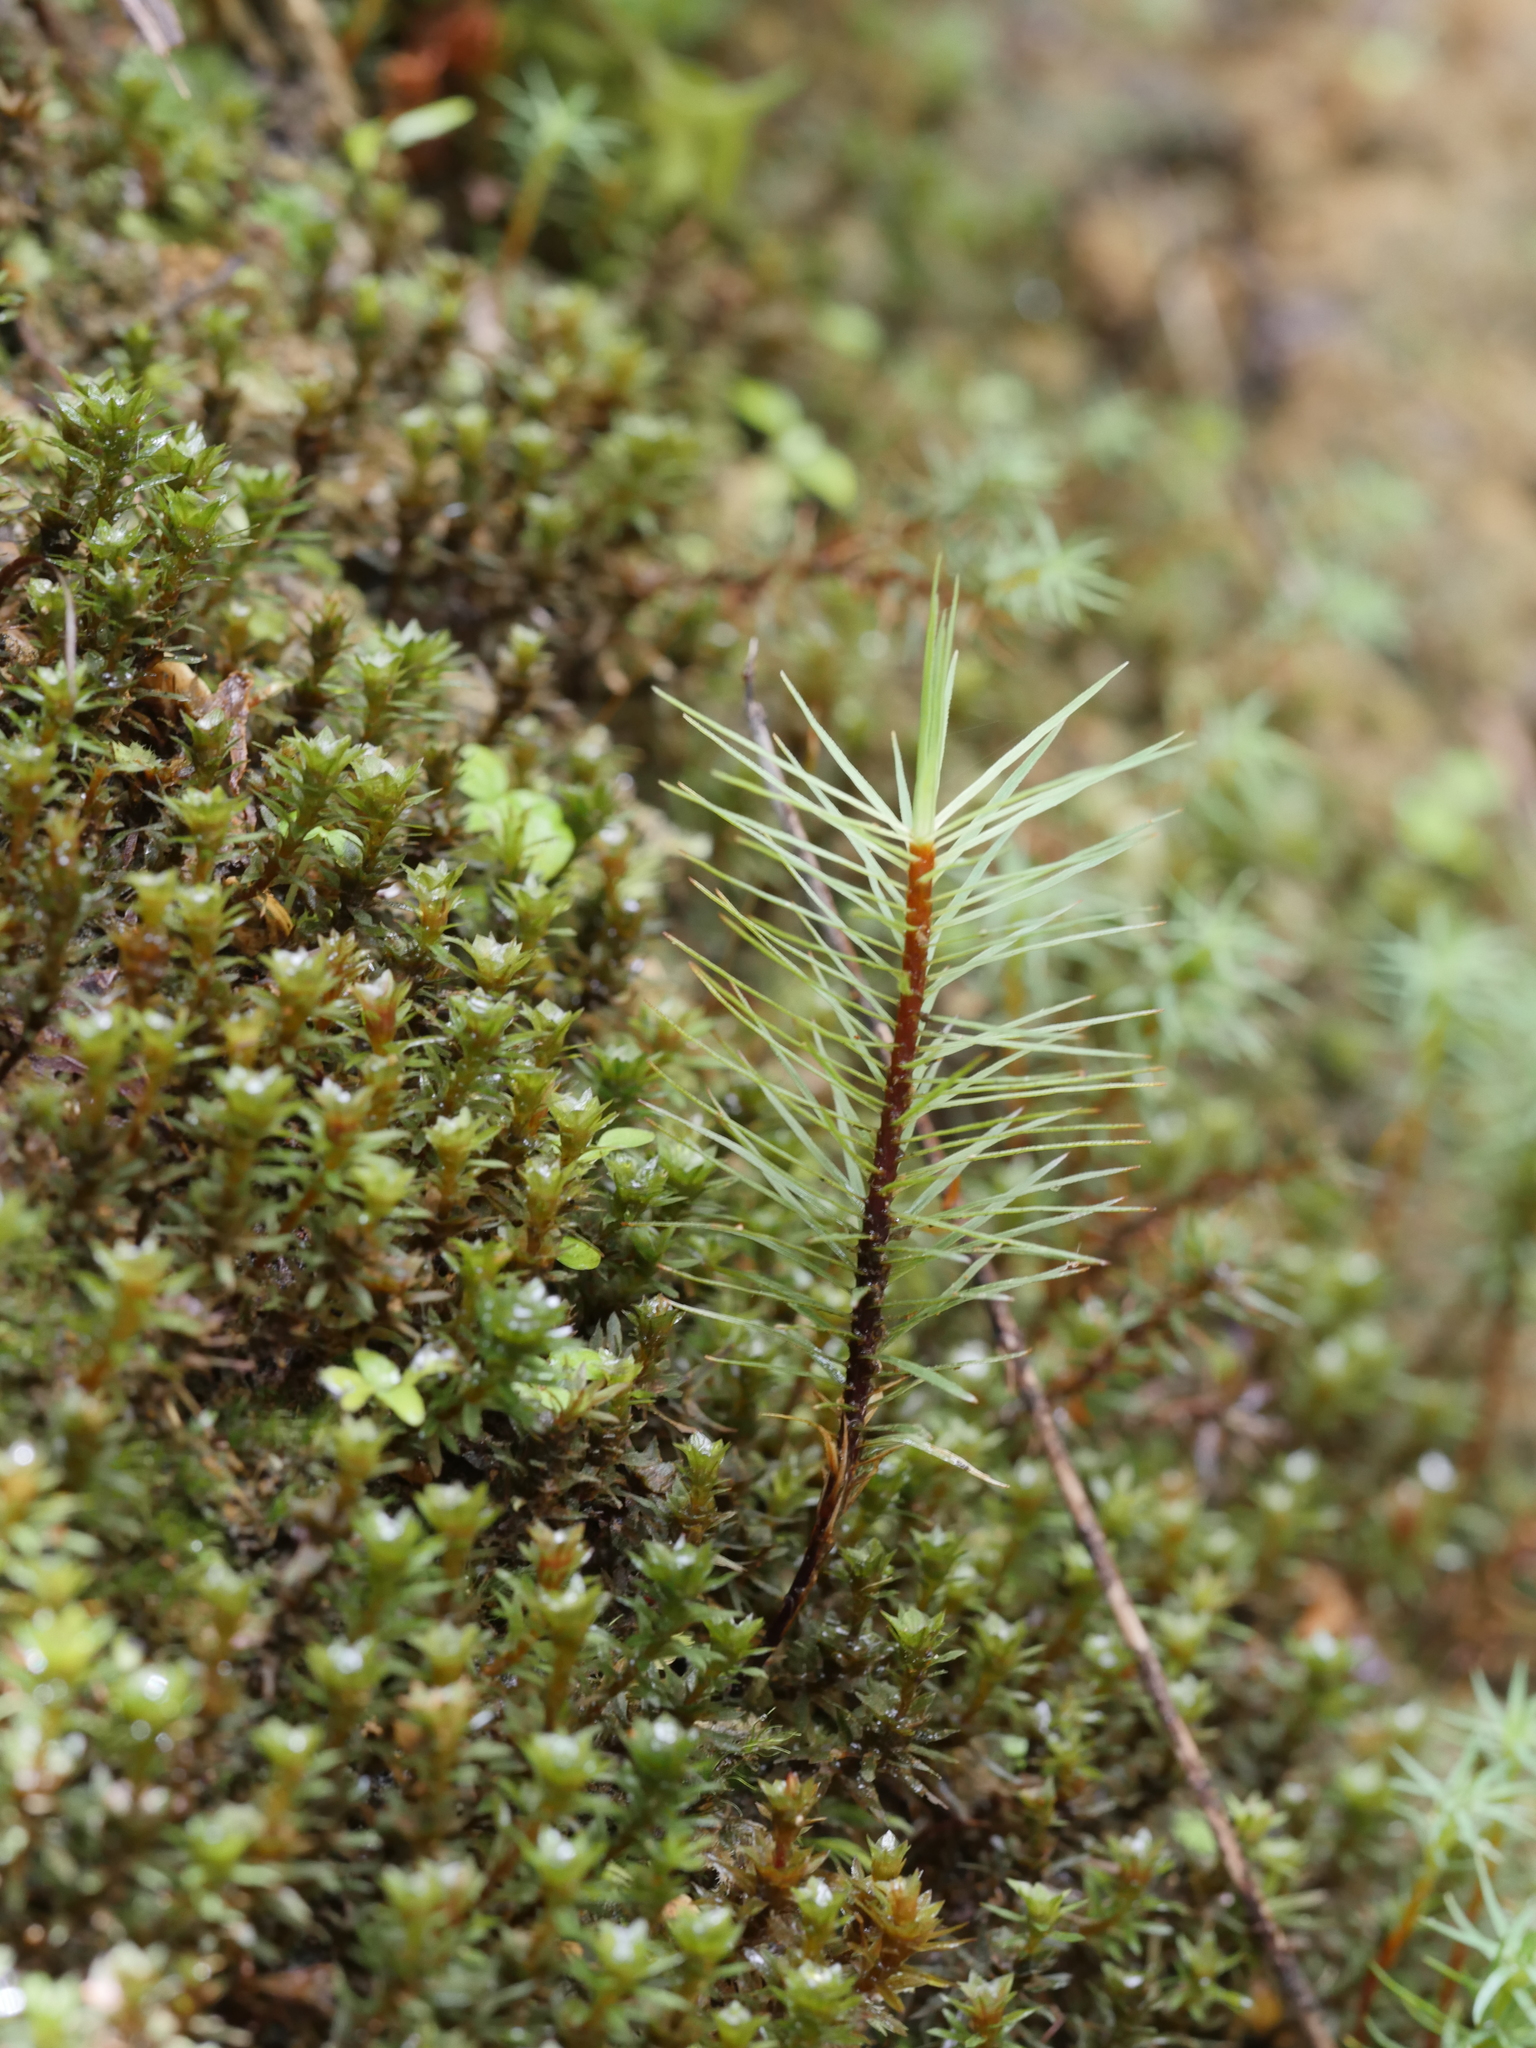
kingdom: Plantae
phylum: Bryophyta
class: Polytrichopsida
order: Polytrichales
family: Polytrichaceae
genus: Dawsonia
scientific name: Dawsonia superba
